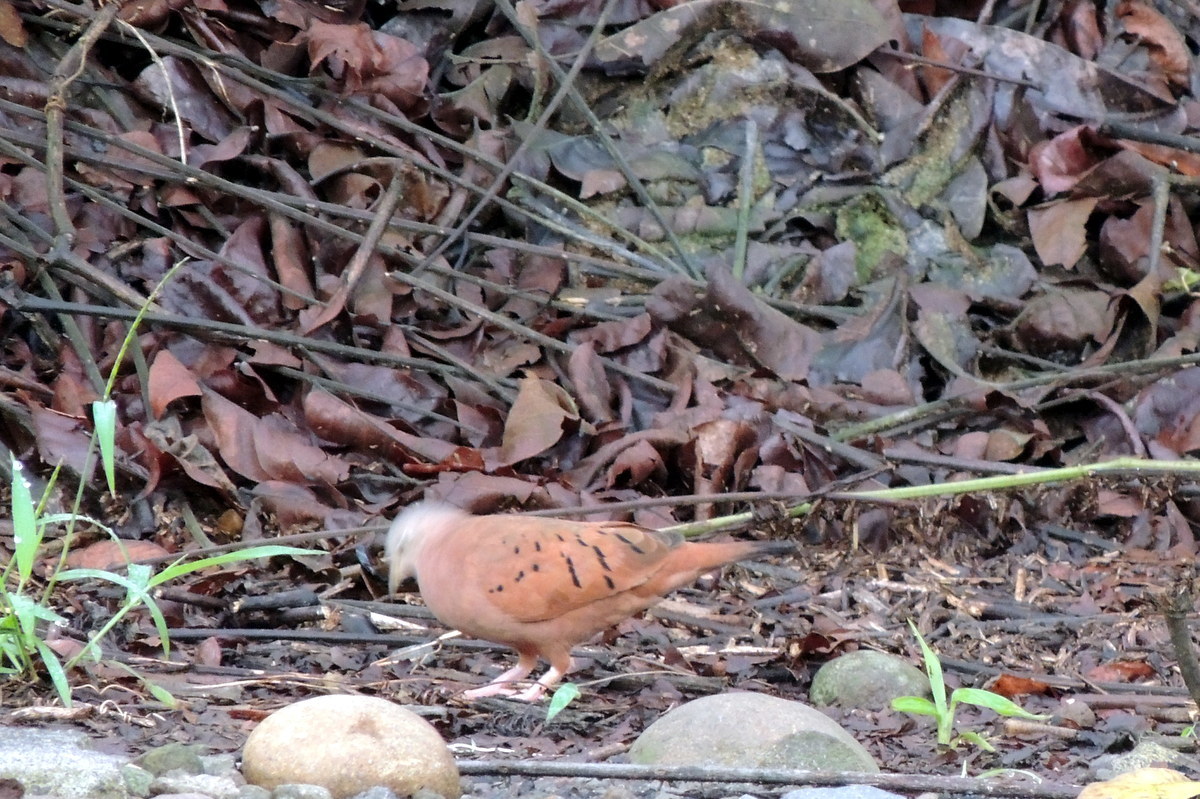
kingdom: Animalia
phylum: Chordata
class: Aves
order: Columbiformes
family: Columbidae
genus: Columbina
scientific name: Columbina talpacoti
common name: Ruddy ground dove
